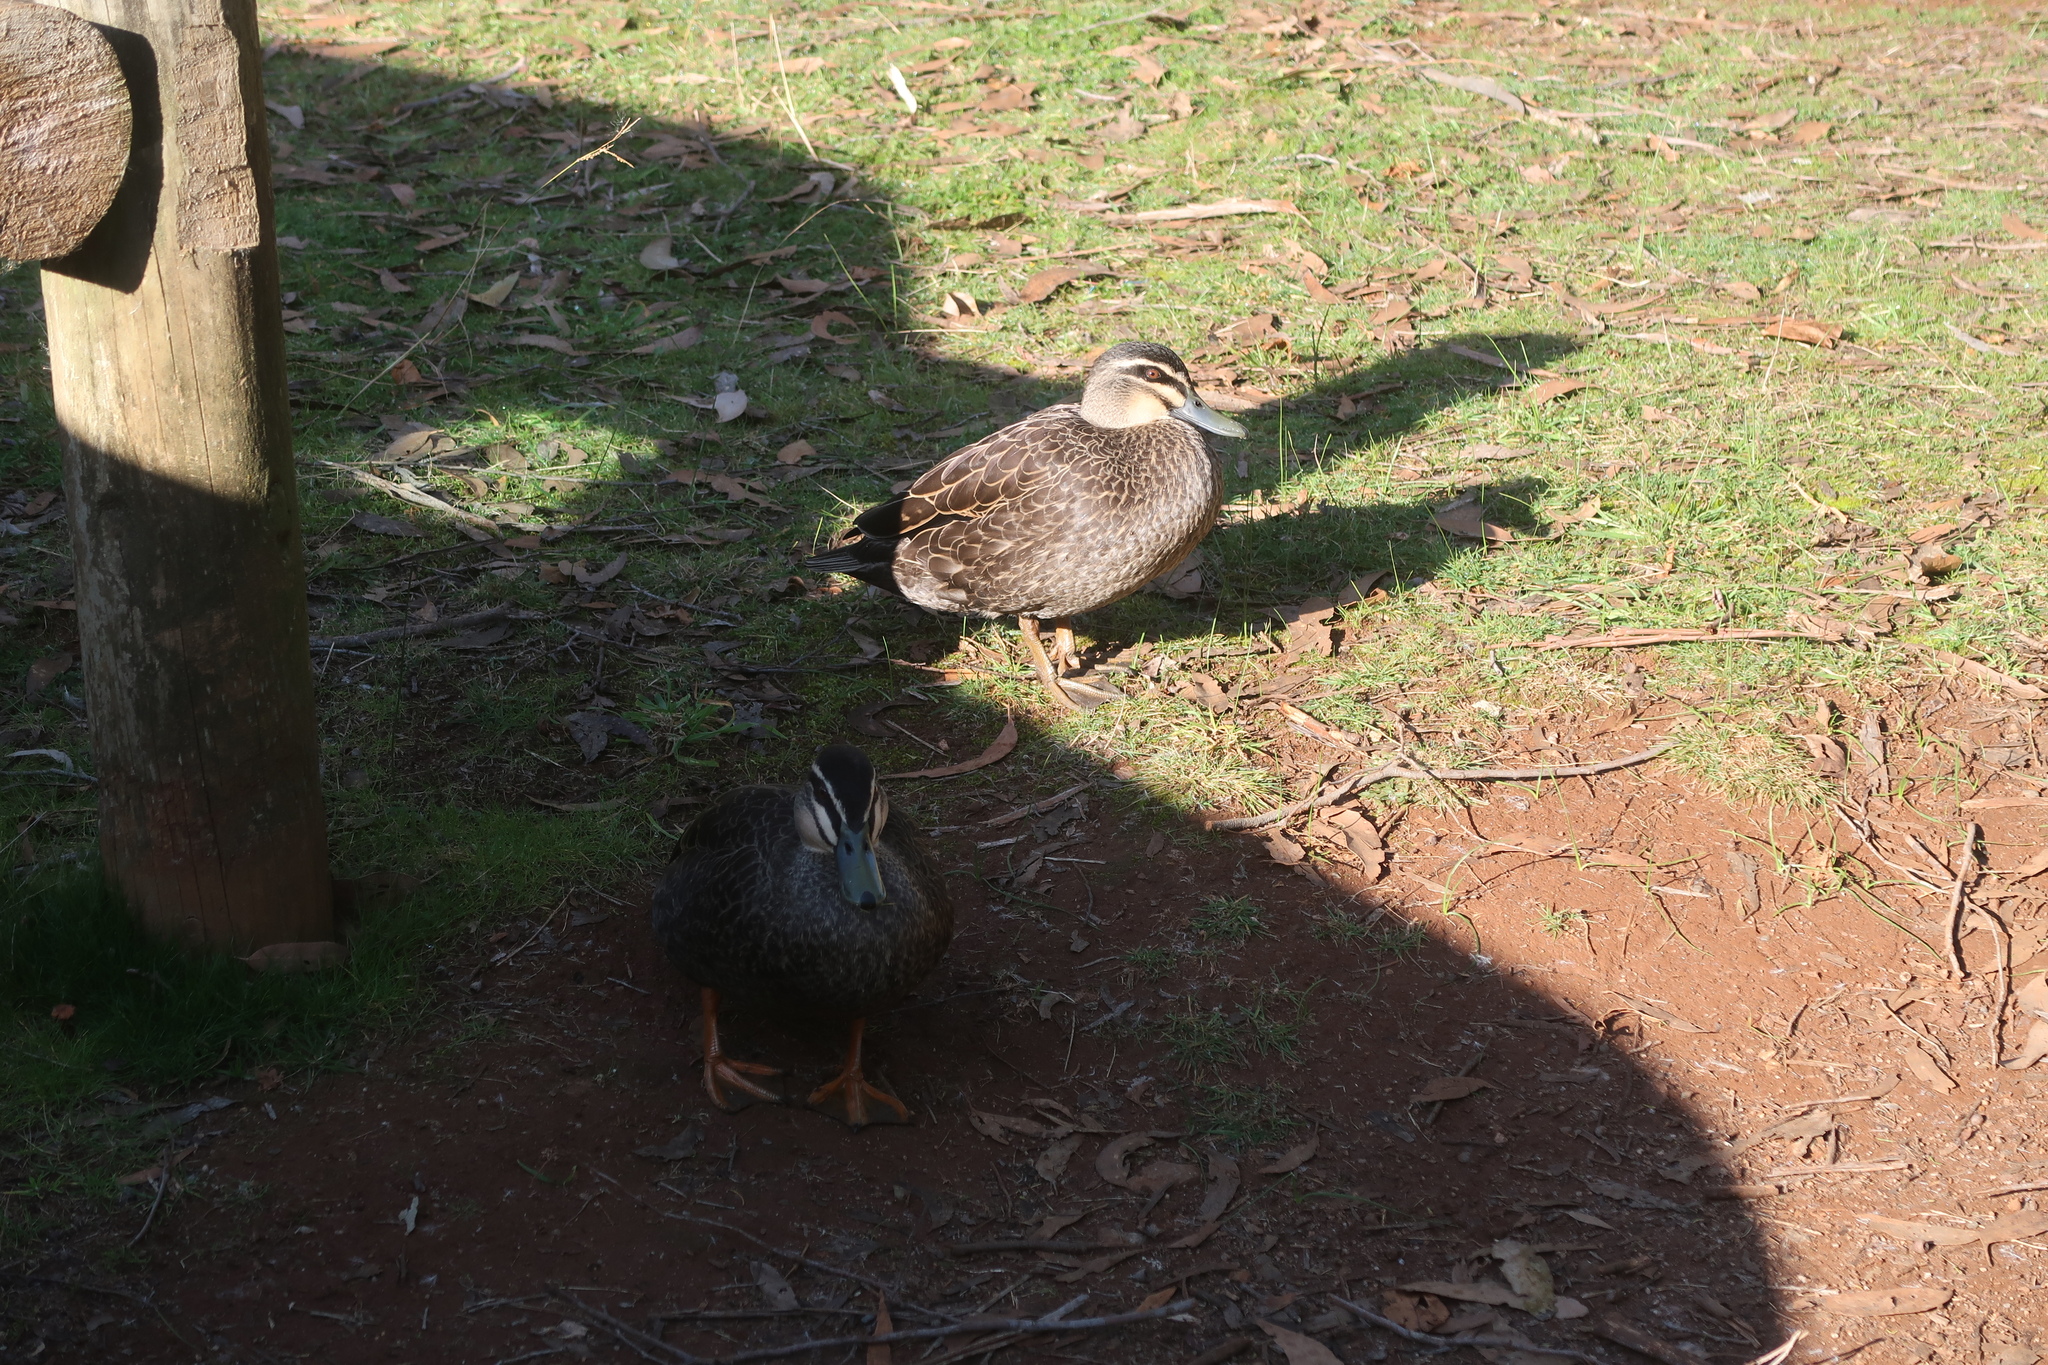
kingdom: Animalia
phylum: Chordata
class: Aves
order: Anseriformes
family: Anatidae
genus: Anas
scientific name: Anas
